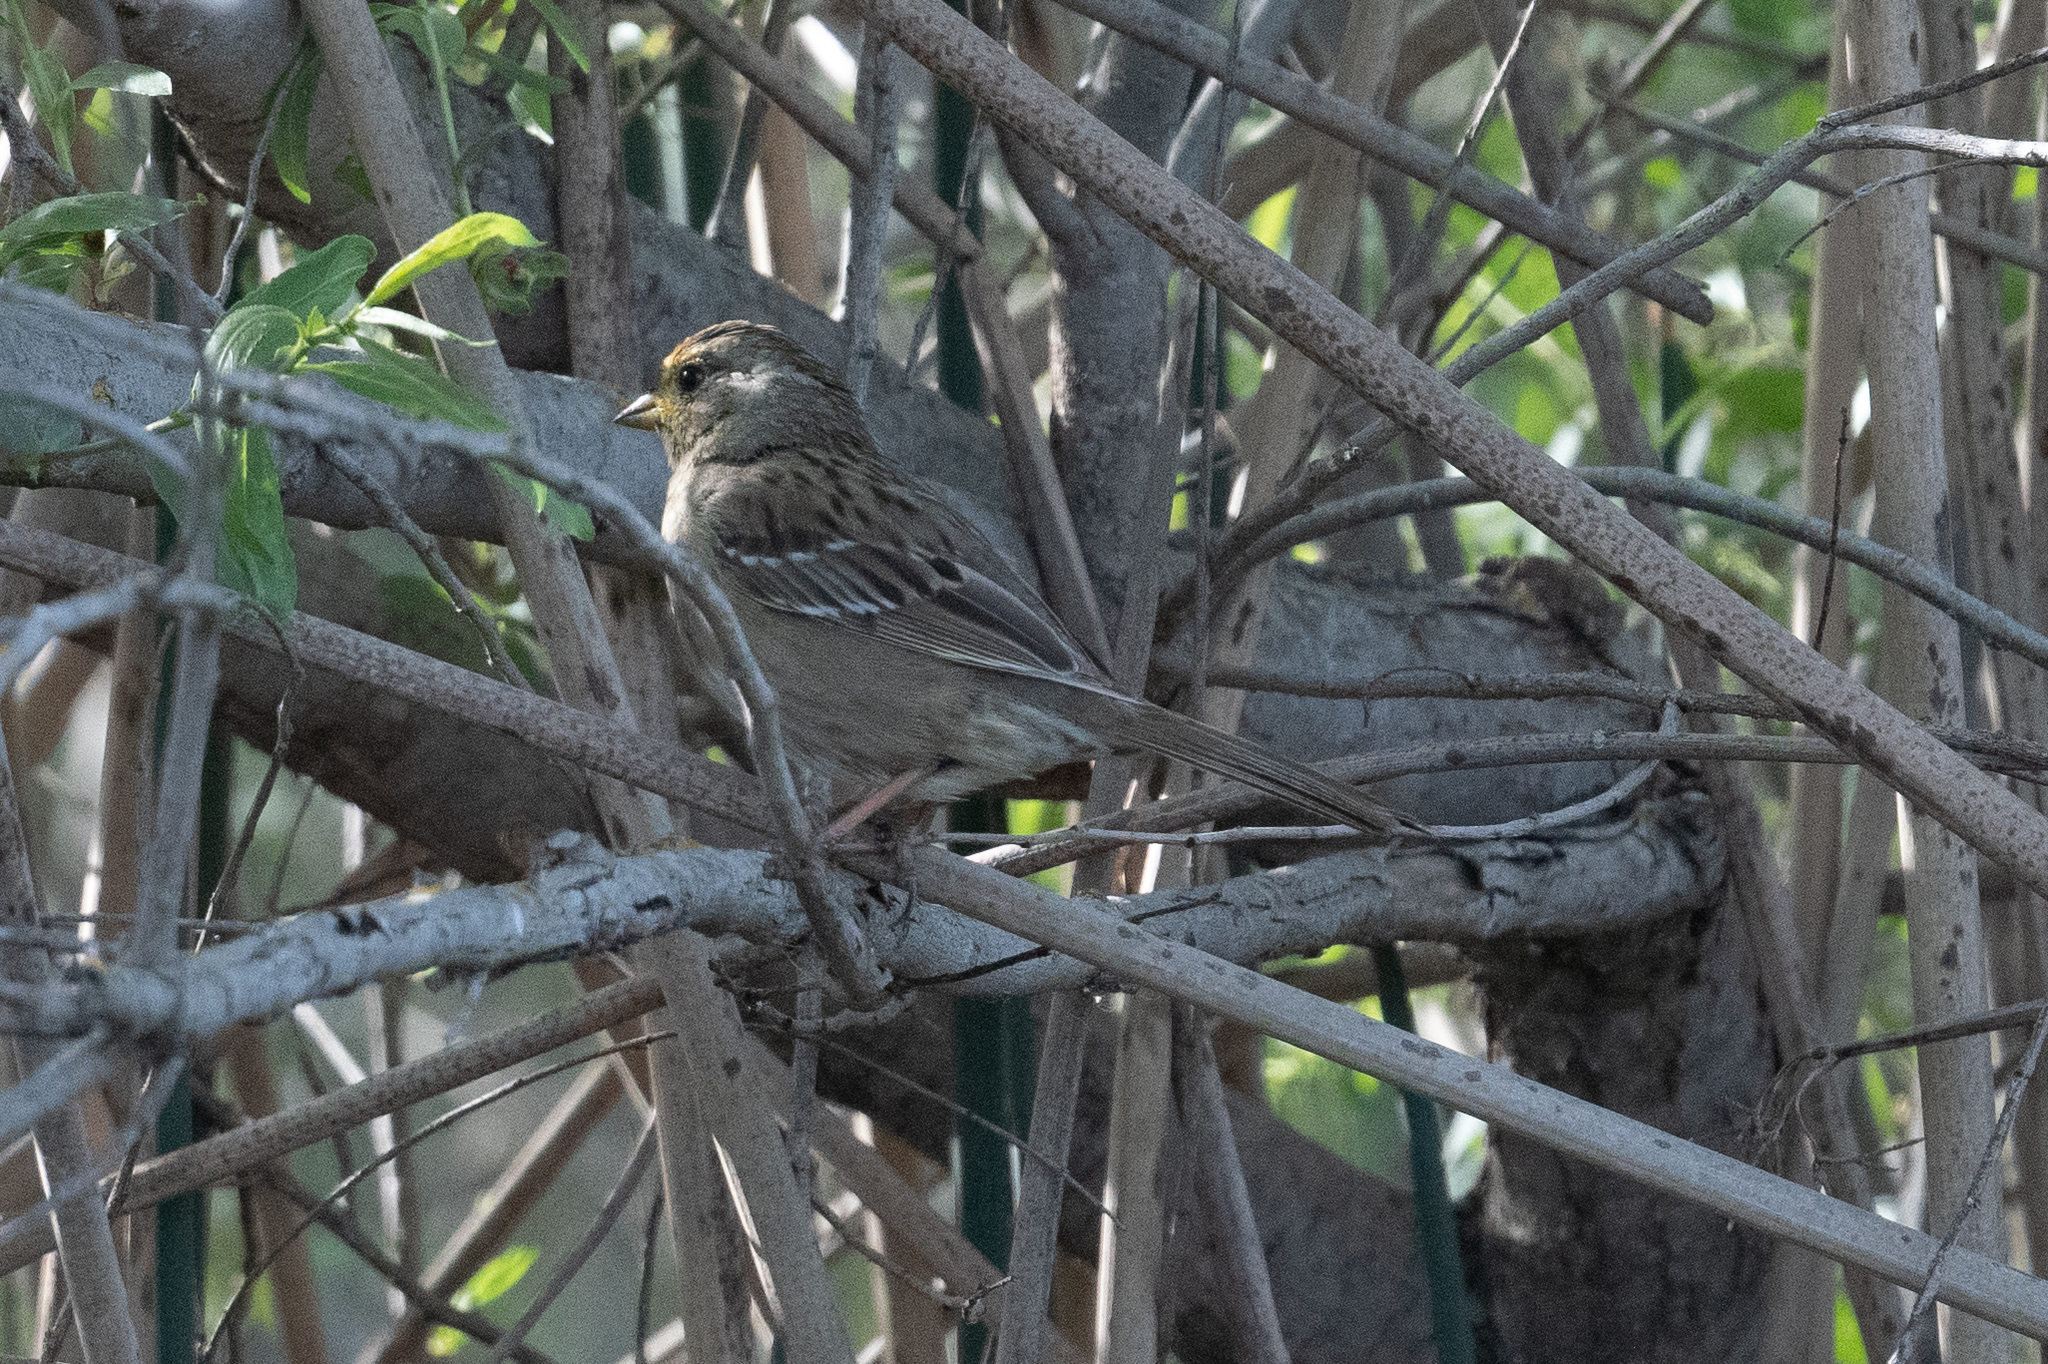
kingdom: Animalia
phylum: Chordata
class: Aves
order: Passeriformes
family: Passerellidae
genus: Zonotrichia
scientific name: Zonotrichia atricapilla
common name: Golden-crowned sparrow
